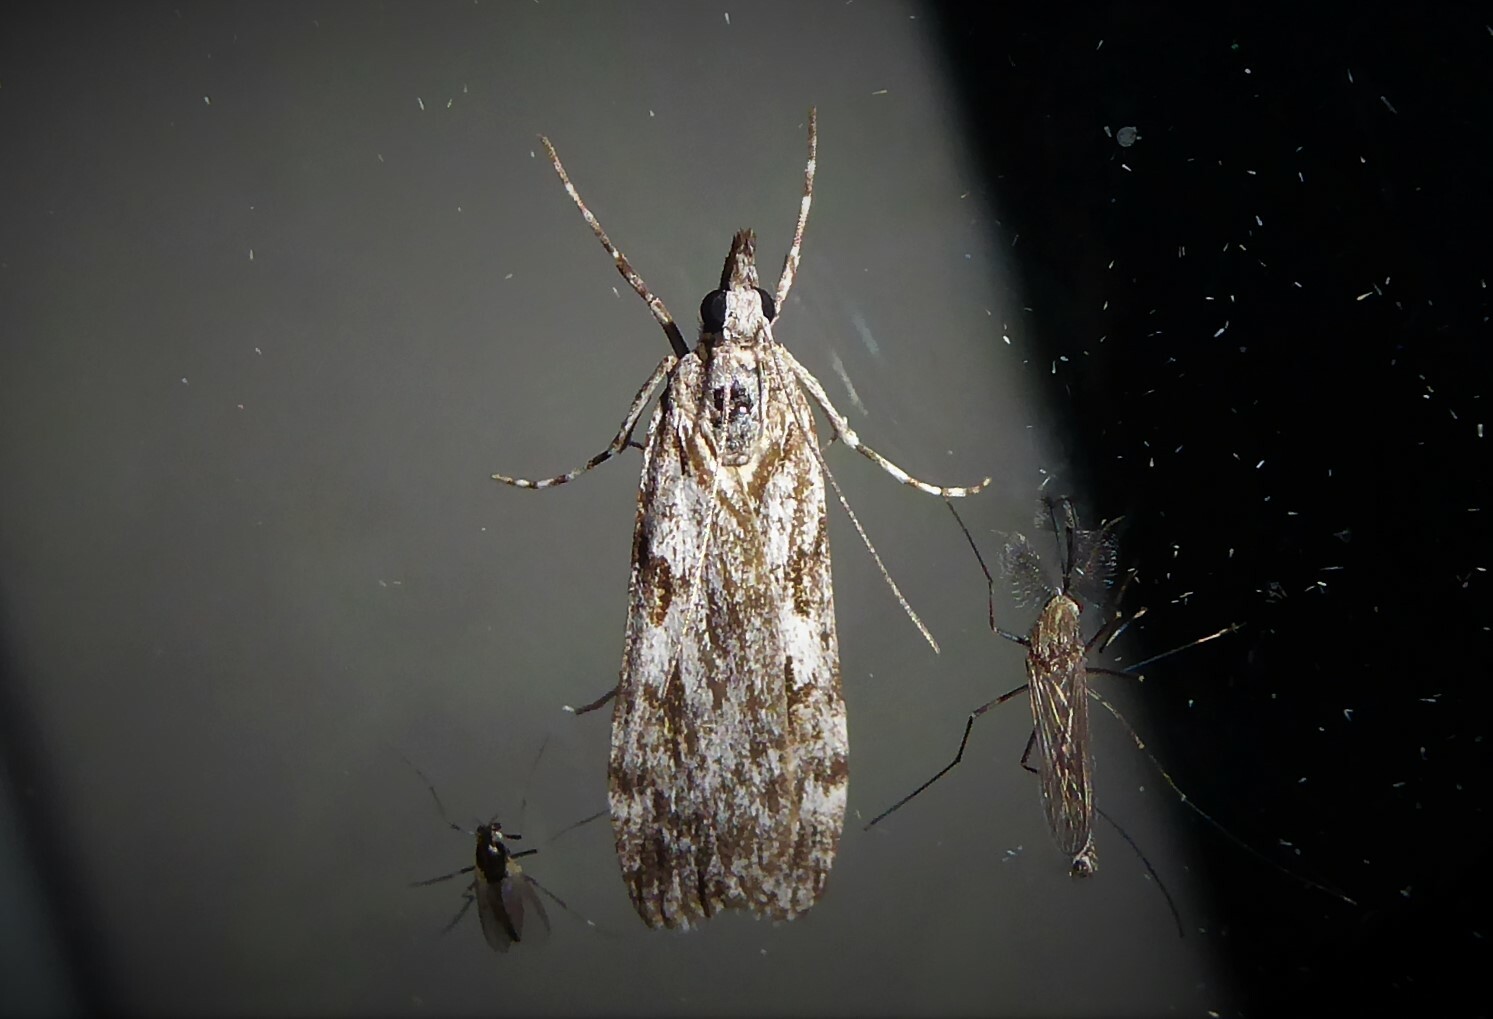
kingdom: Animalia
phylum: Arthropoda
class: Insecta
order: Lepidoptera
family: Crambidae
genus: Scoparia
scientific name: Scoparia halopis
